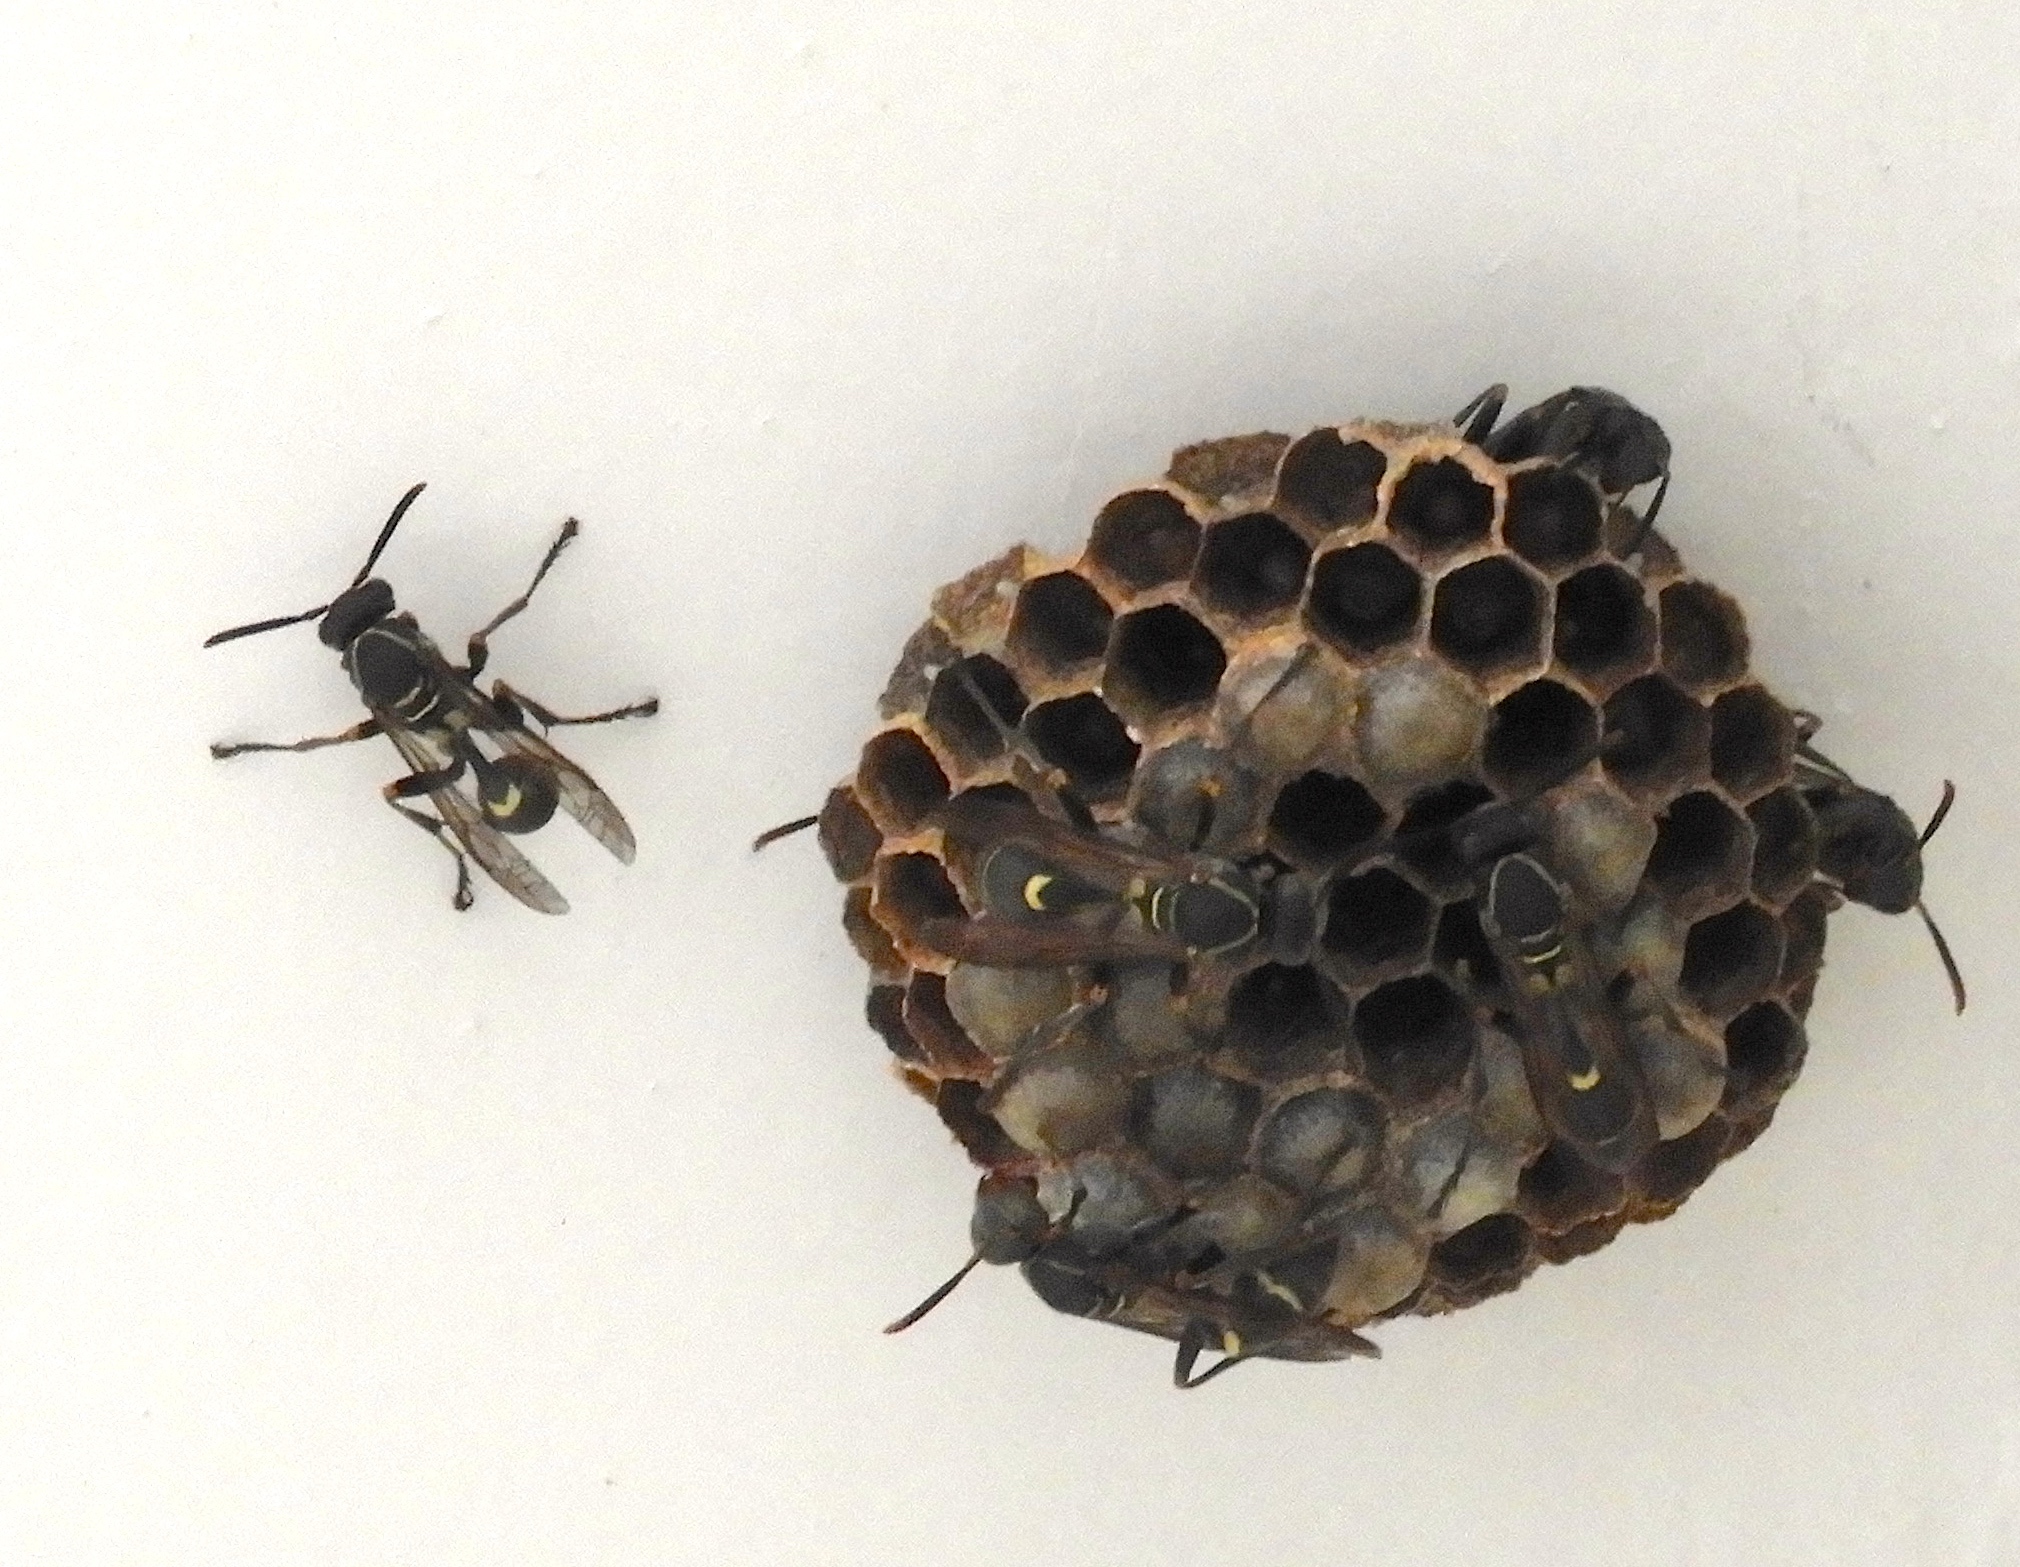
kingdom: Animalia
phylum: Arthropoda
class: Insecta
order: Hymenoptera
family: Eumenidae
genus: Polybia
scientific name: Polybia occidentalis
